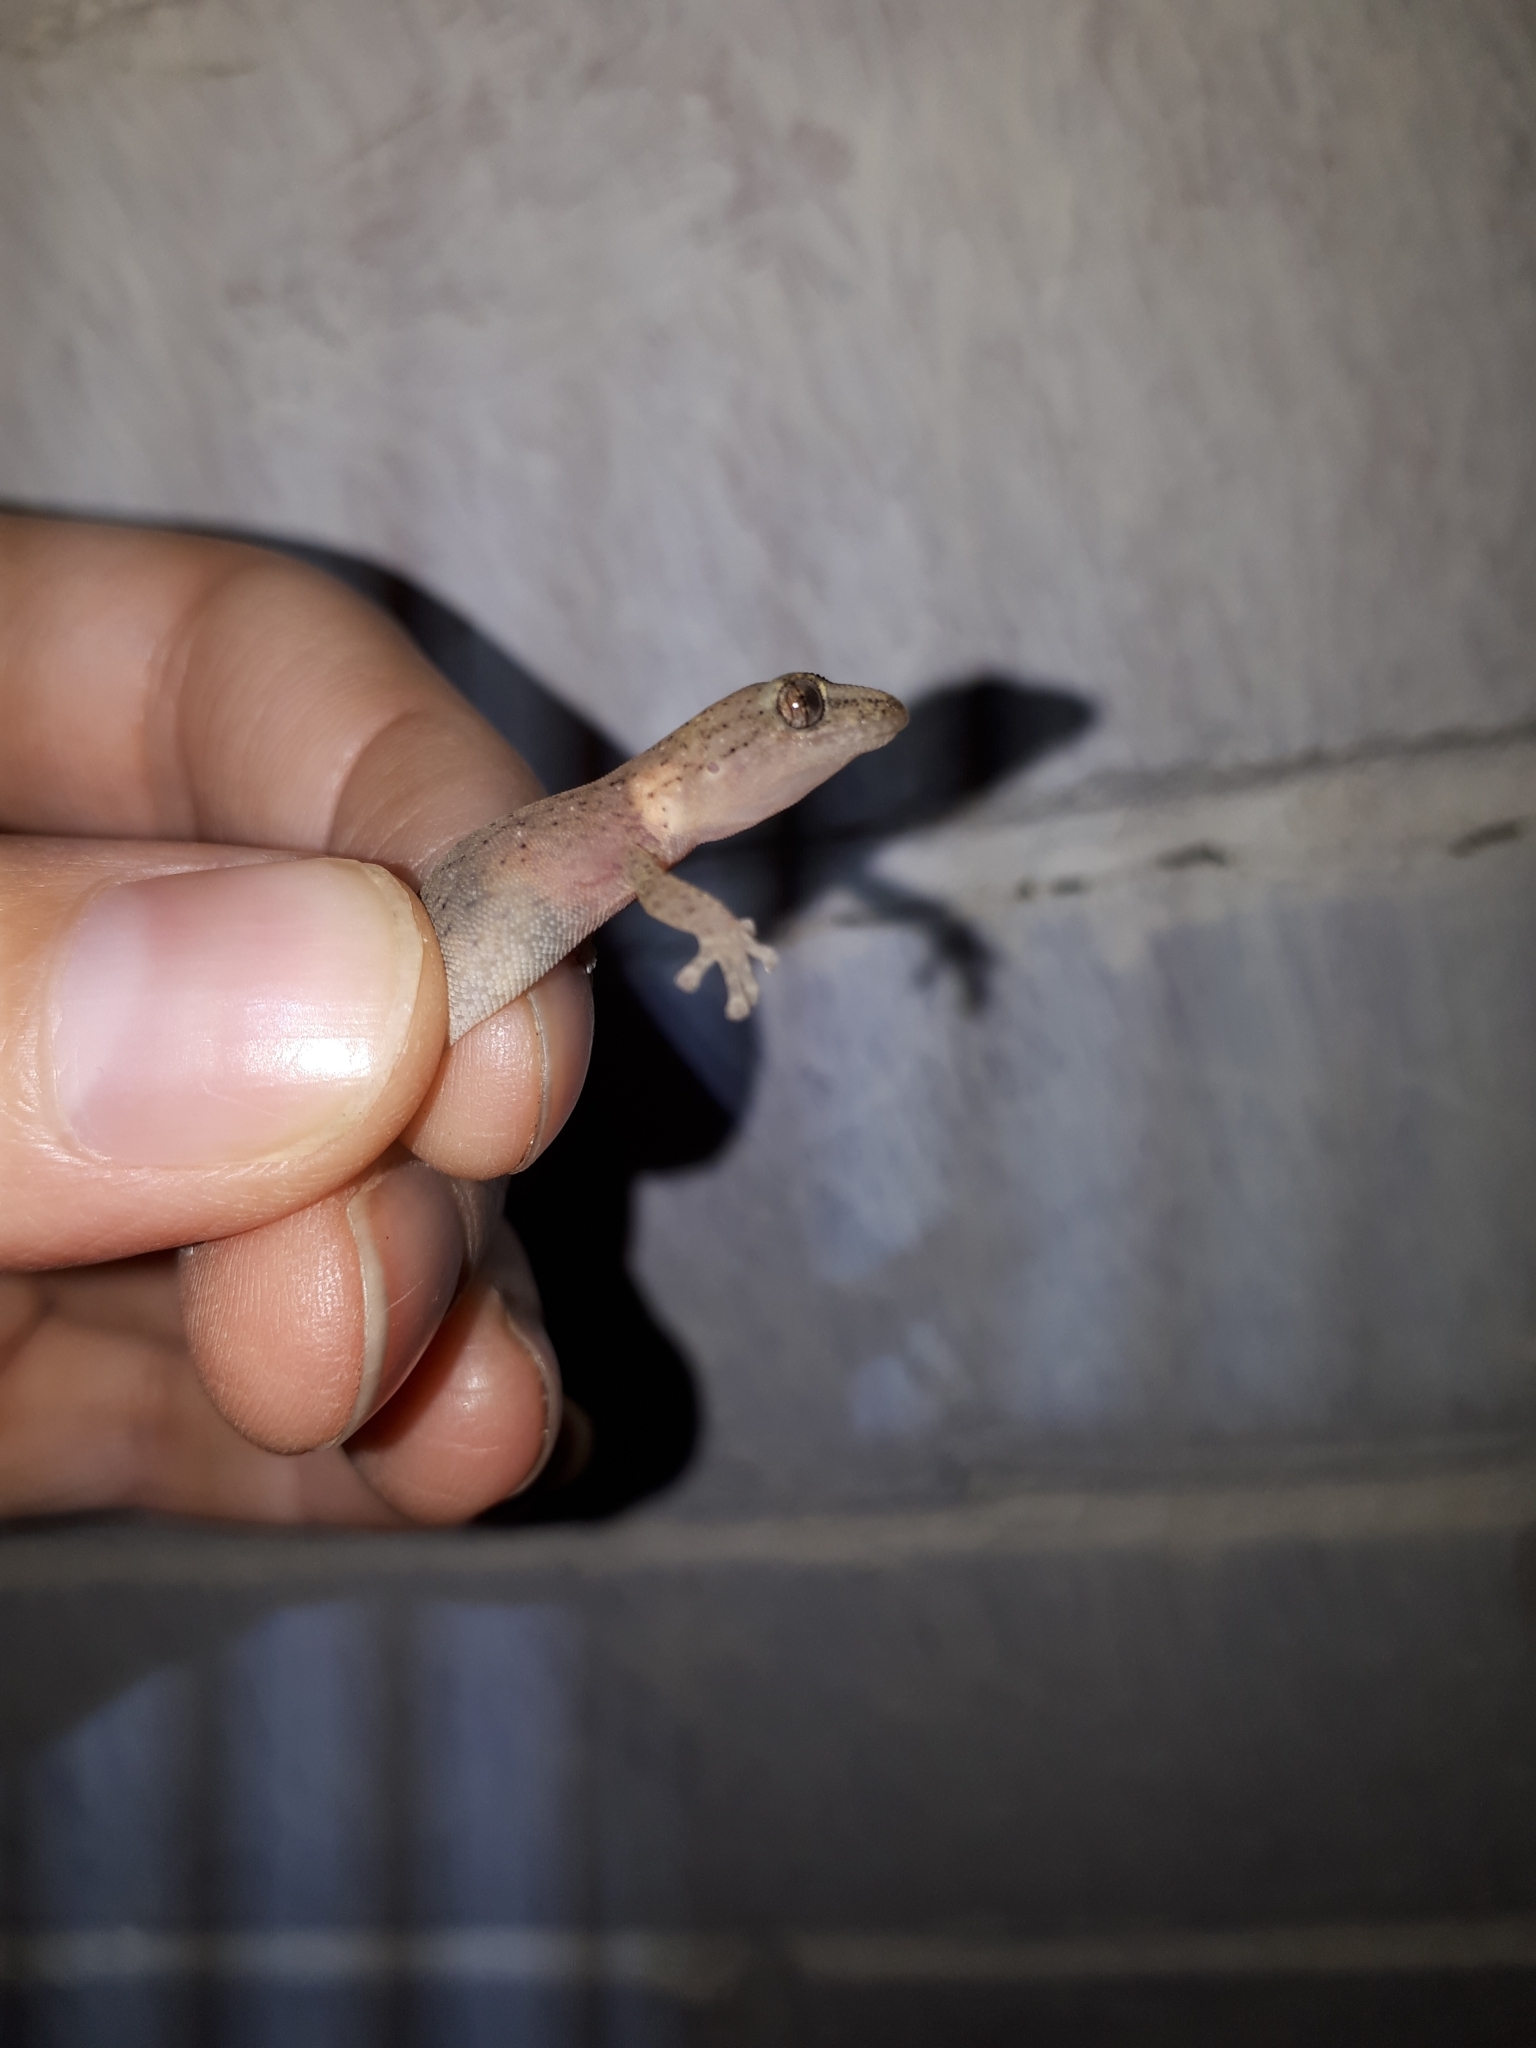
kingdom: Animalia
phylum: Chordata
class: Squamata
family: Gekkonidae
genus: Afrogecko
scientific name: Afrogecko porphyreus
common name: Marbled leaf-toed gecko
